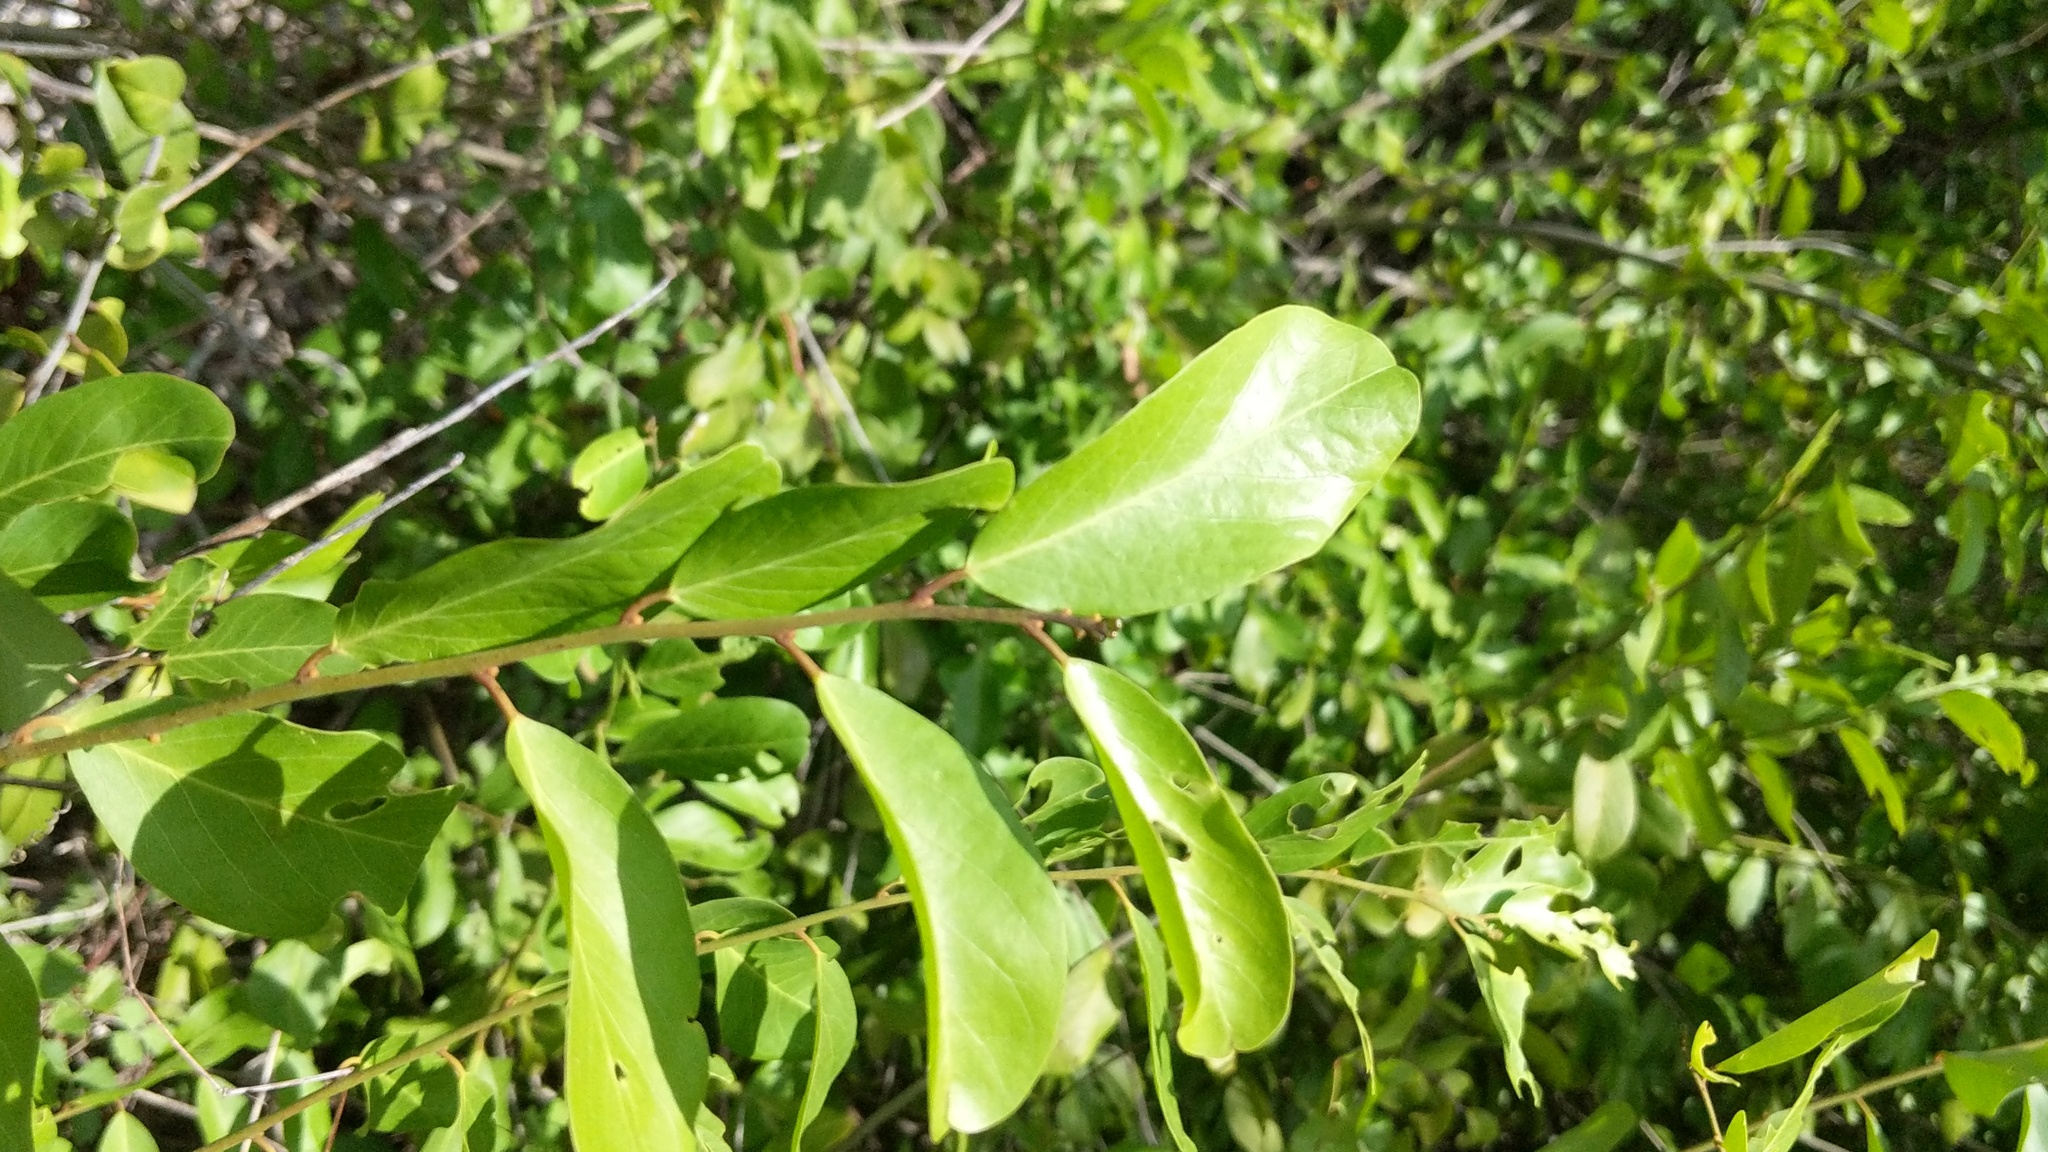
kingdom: Plantae
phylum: Tracheophyta
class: Magnoliopsida
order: Brassicales
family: Capparaceae
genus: Cynophalla
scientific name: Cynophalla flexuosa
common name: Capertree
